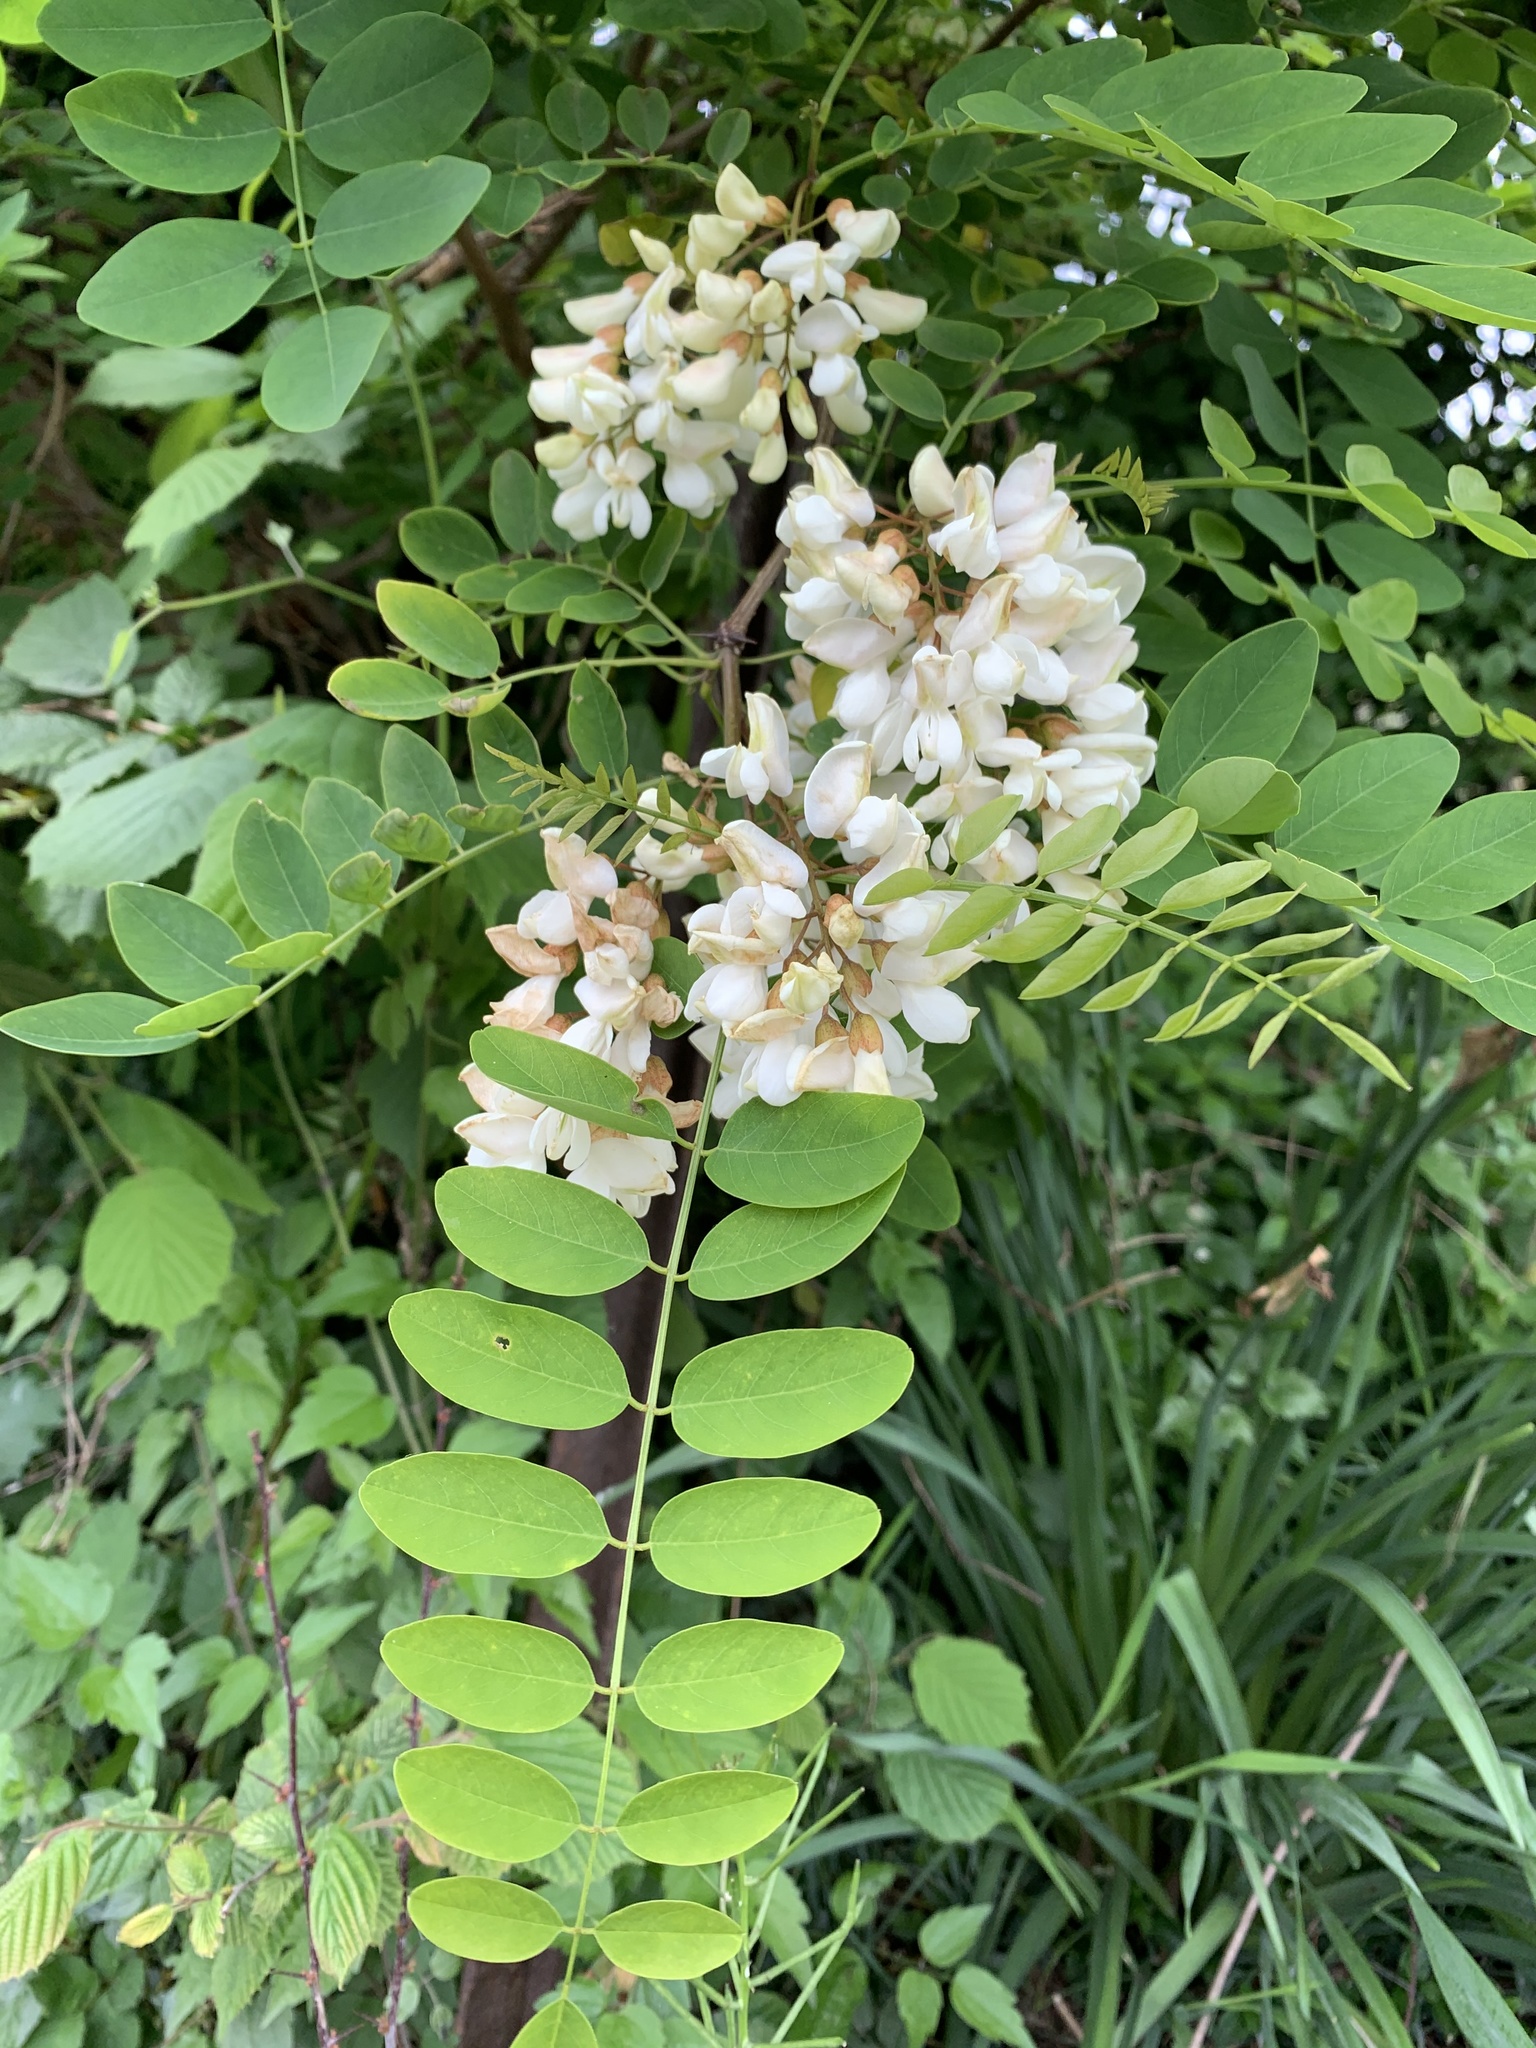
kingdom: Plantae
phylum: Tracheophyta
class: Magnoliopsida
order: Fabales
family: Fabaceae
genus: Robinia
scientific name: Robinia pseudoacacia
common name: Black locust
